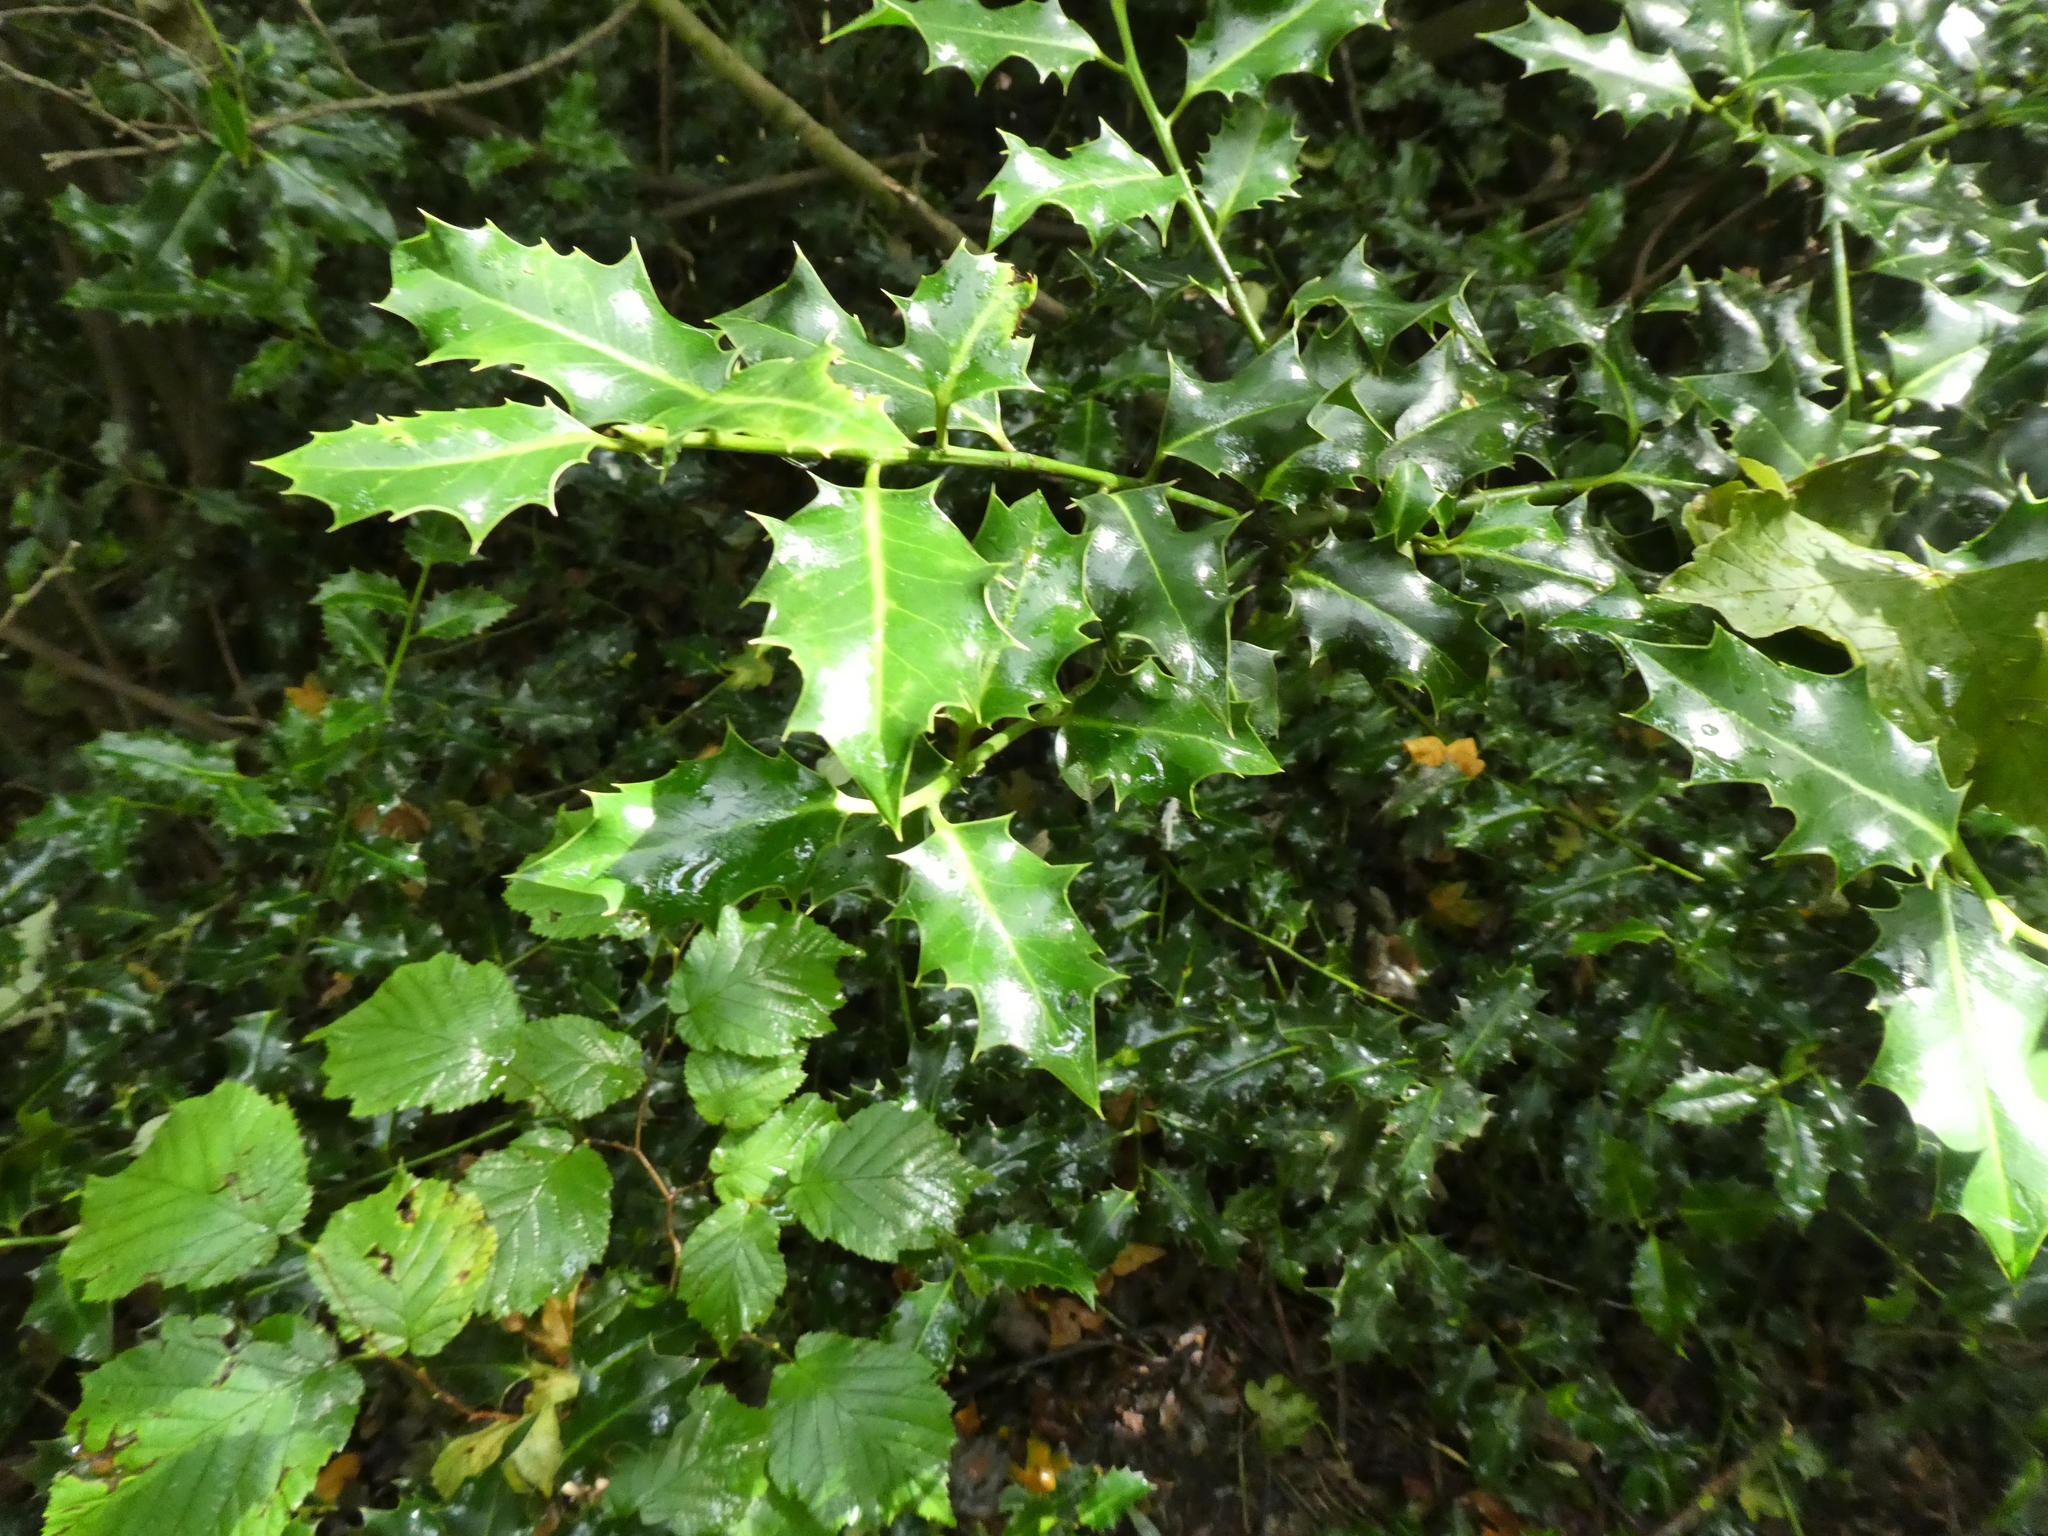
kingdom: Plantae
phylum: Tracheophyta
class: Magnoliopsida
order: Aquifoliales
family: Aquifoliaceae
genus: Ilex
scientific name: Ilex aquifolium
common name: English holly
